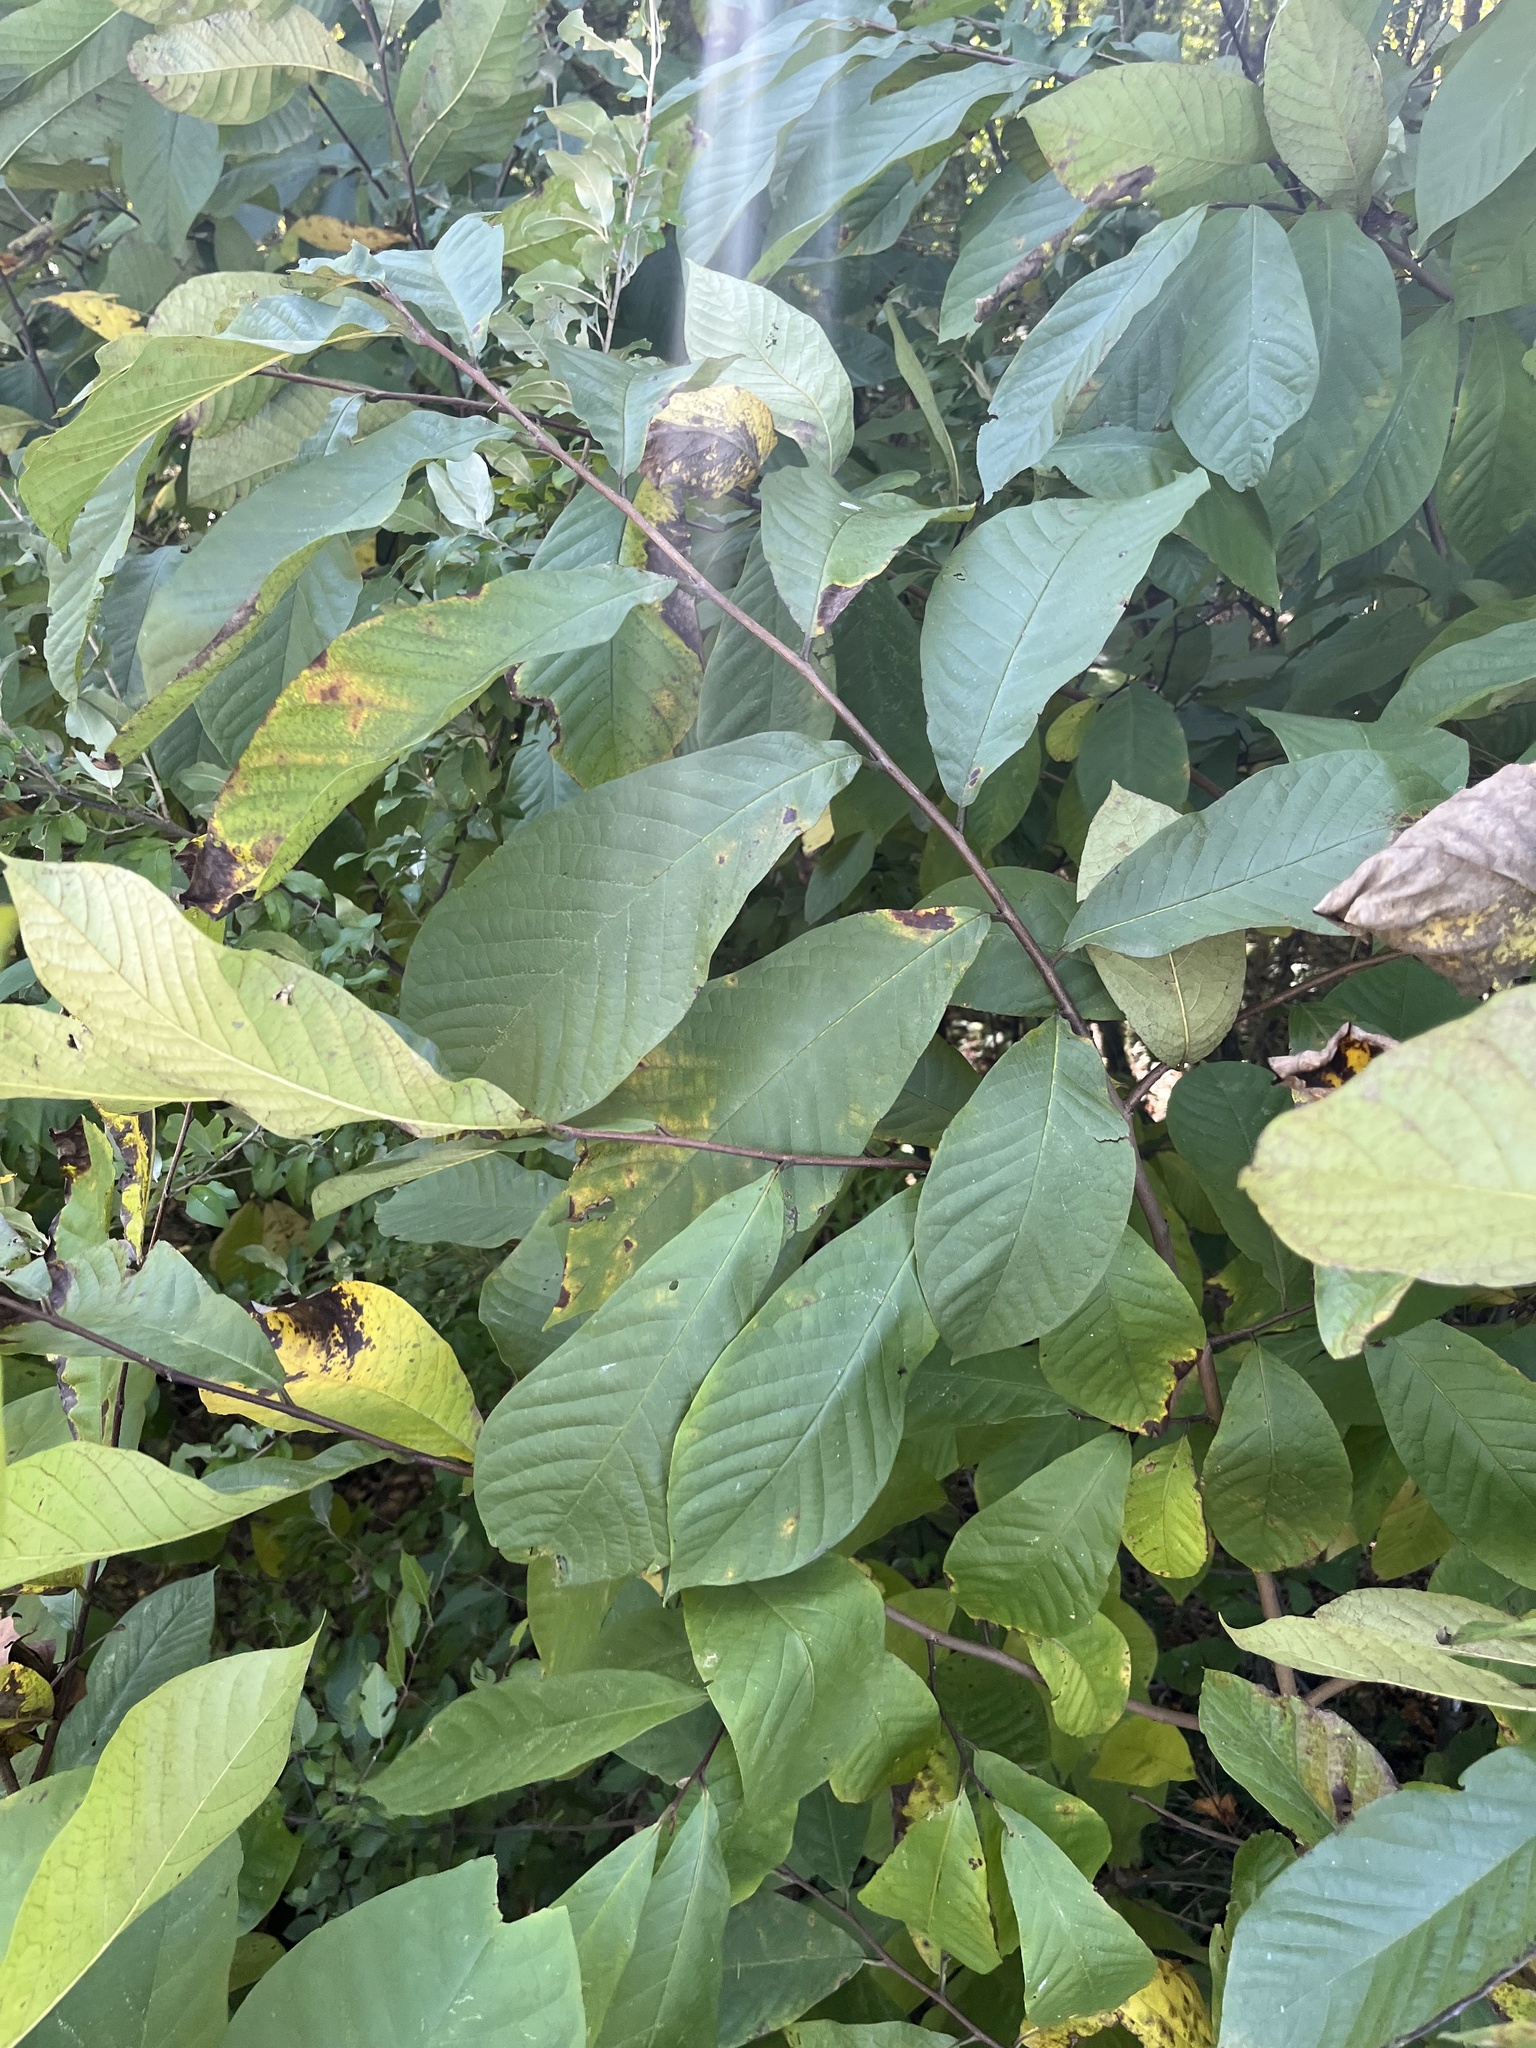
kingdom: Plantae
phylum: Tracheophyta
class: Magnoliopsida
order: Magnoliales
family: Annonaceae
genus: Asimina
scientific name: Asimina triloba
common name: Dog-banana
